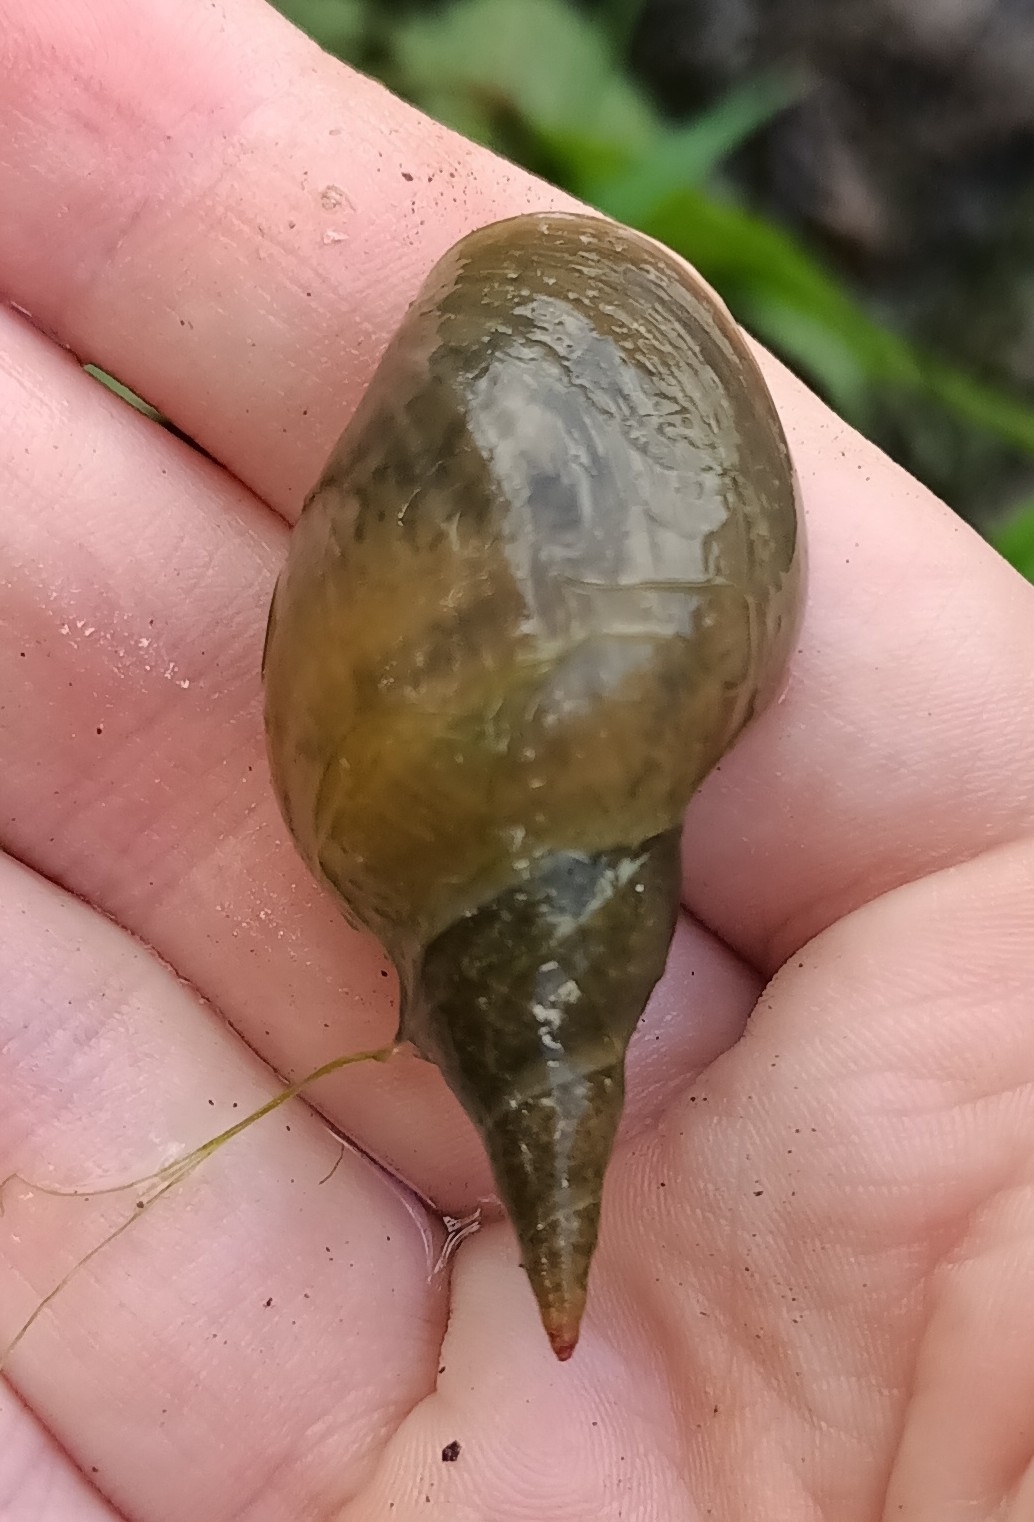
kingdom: Animalia
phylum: Mollusca
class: Gastropoda
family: Lymnaeidae
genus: Lymnaea
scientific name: Lymnaea stagnalis
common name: Great pond snail
